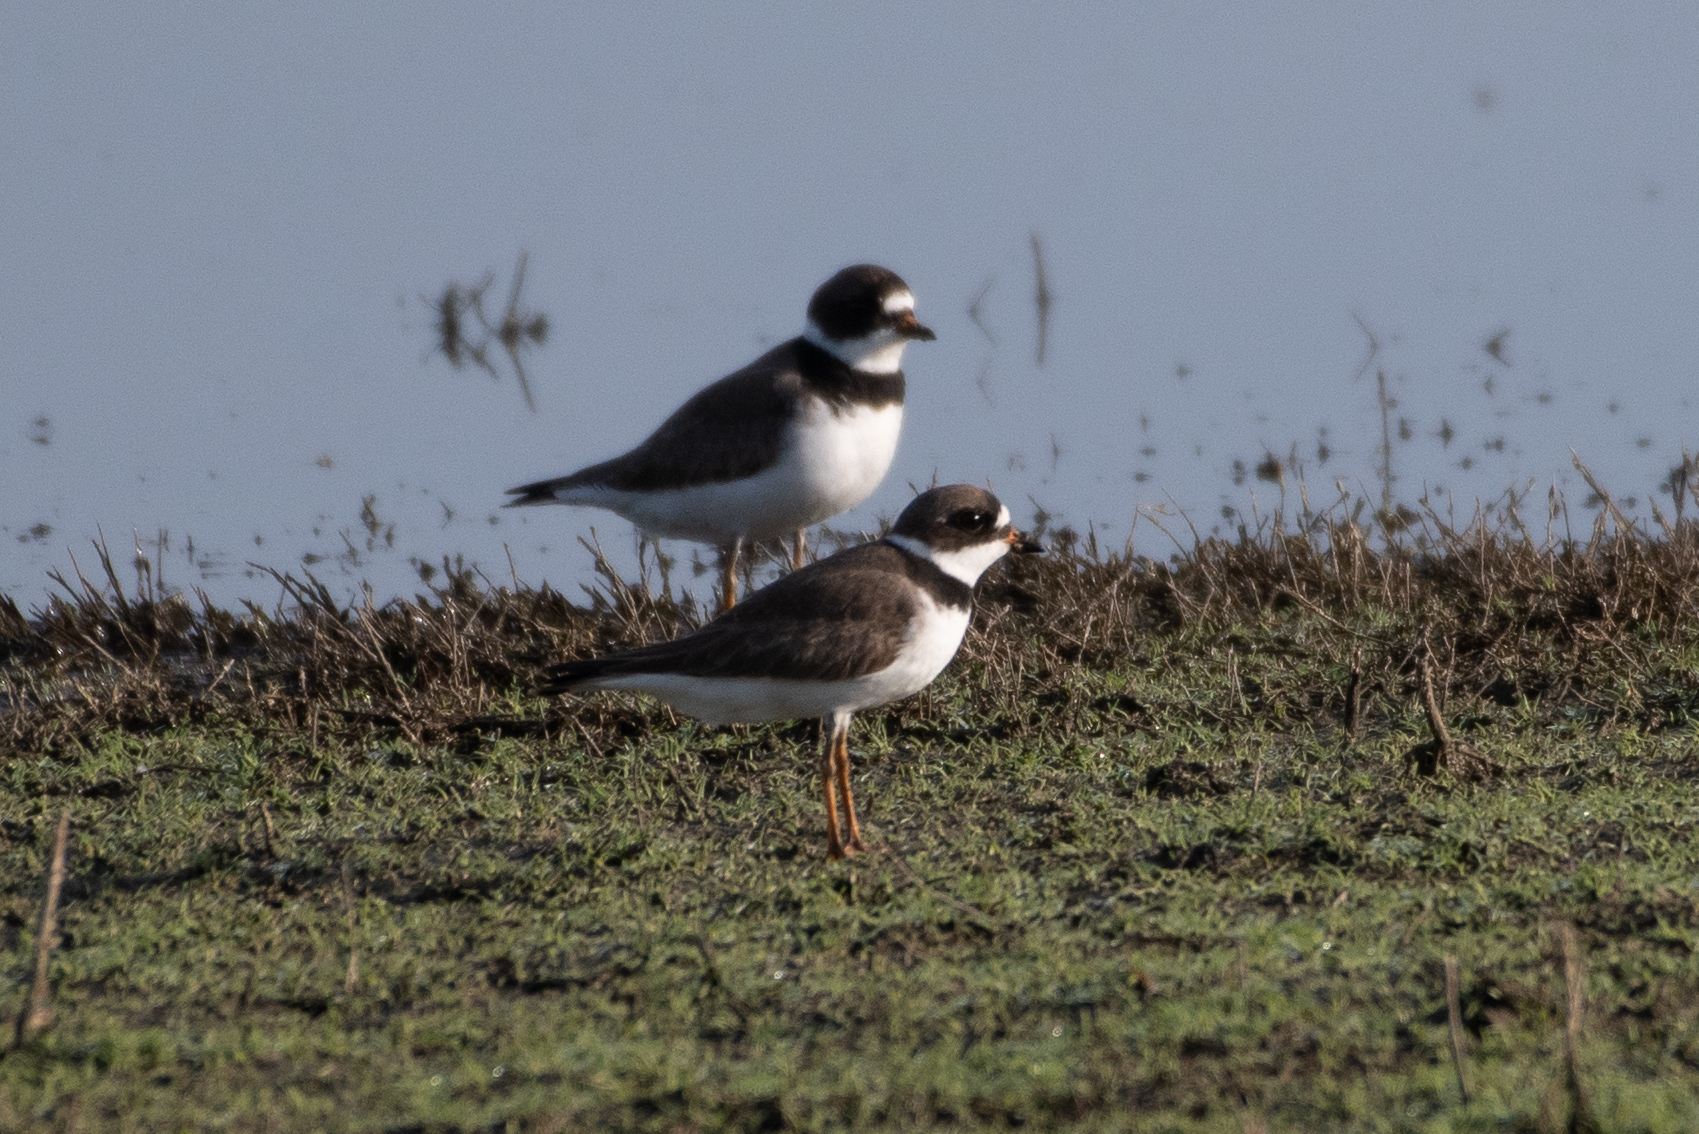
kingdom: Animalia
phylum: Chordata
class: Aves
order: Charadriiformes
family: Charadriidae
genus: Charadrius
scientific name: Charadrius semipalmatus
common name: Semipalmated plover
